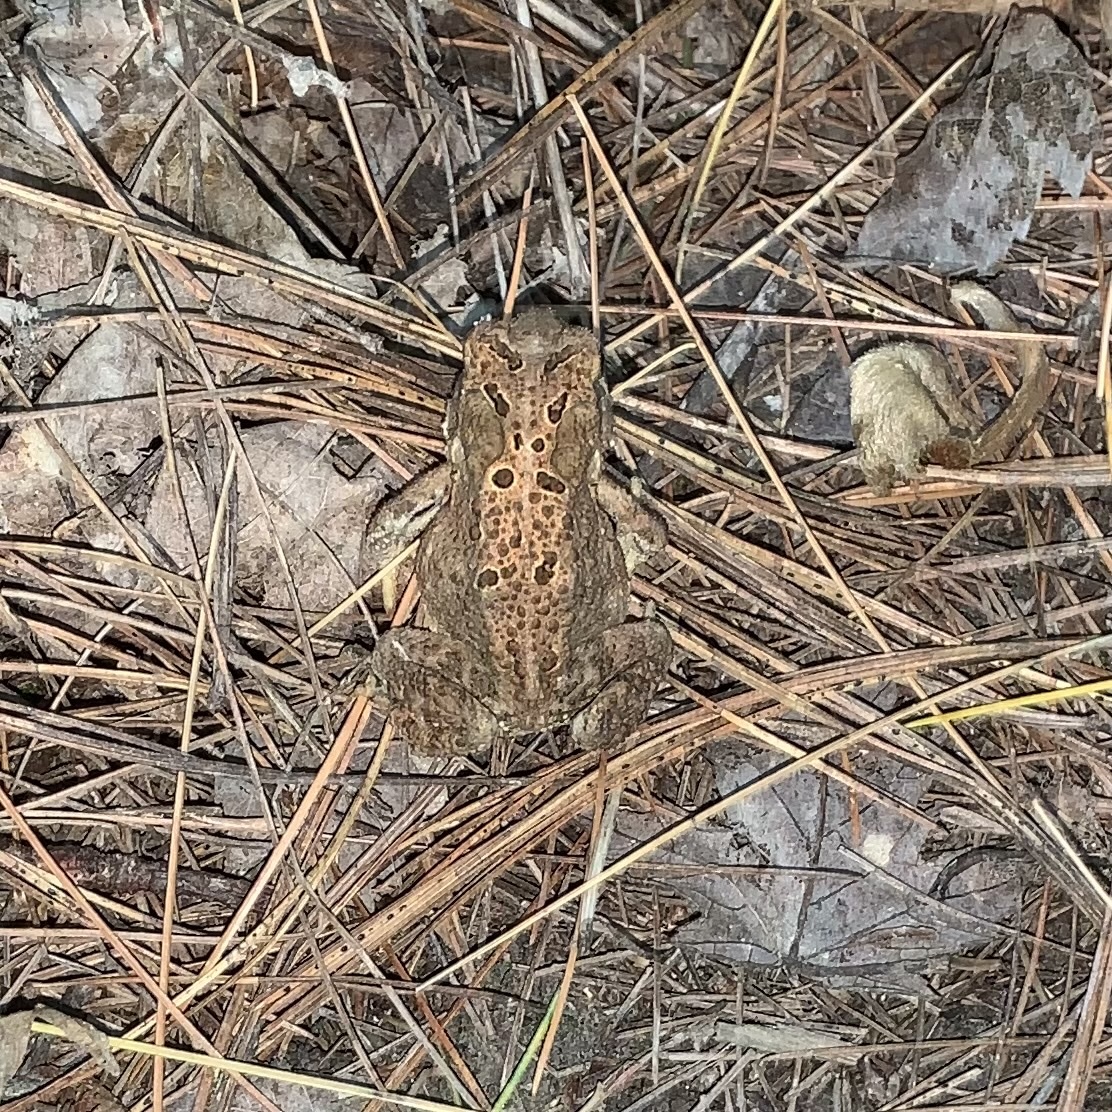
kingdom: Animalia
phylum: Chordata
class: Amphibia
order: Anura
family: Bufonidae
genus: Anaxyrus
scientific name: Anaxyrus americanus
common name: American toad
